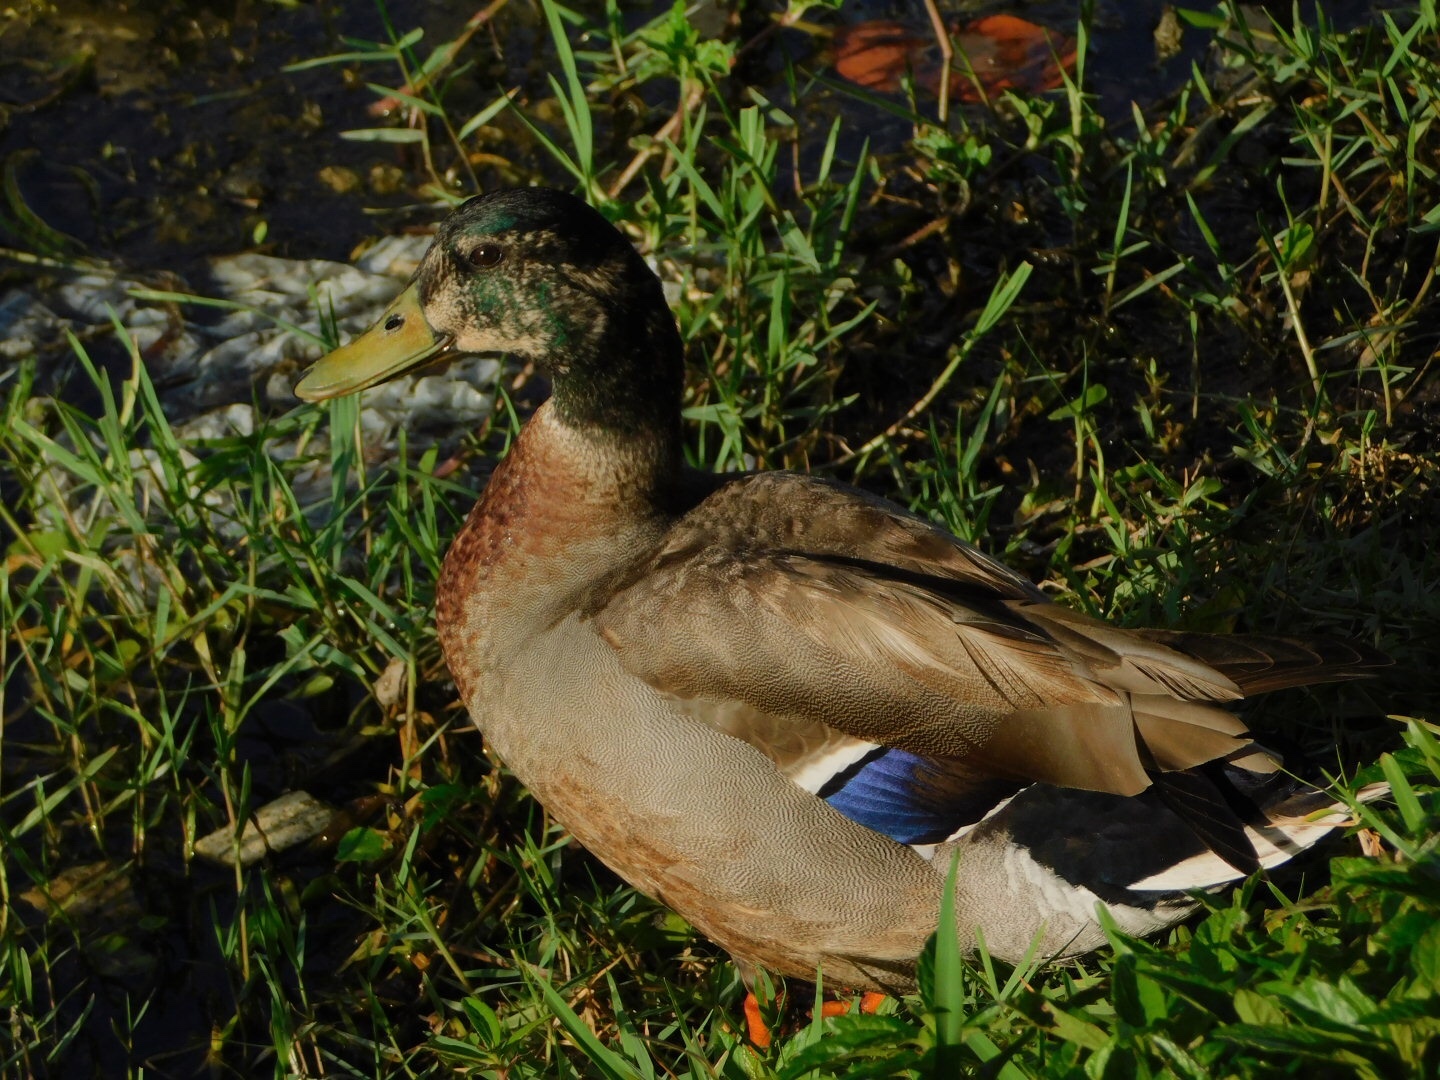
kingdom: Animalia
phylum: Chordata
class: Aves
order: Anseriformes
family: Anatidae
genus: Anas
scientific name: Anas platyrhynchos
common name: Mallard
